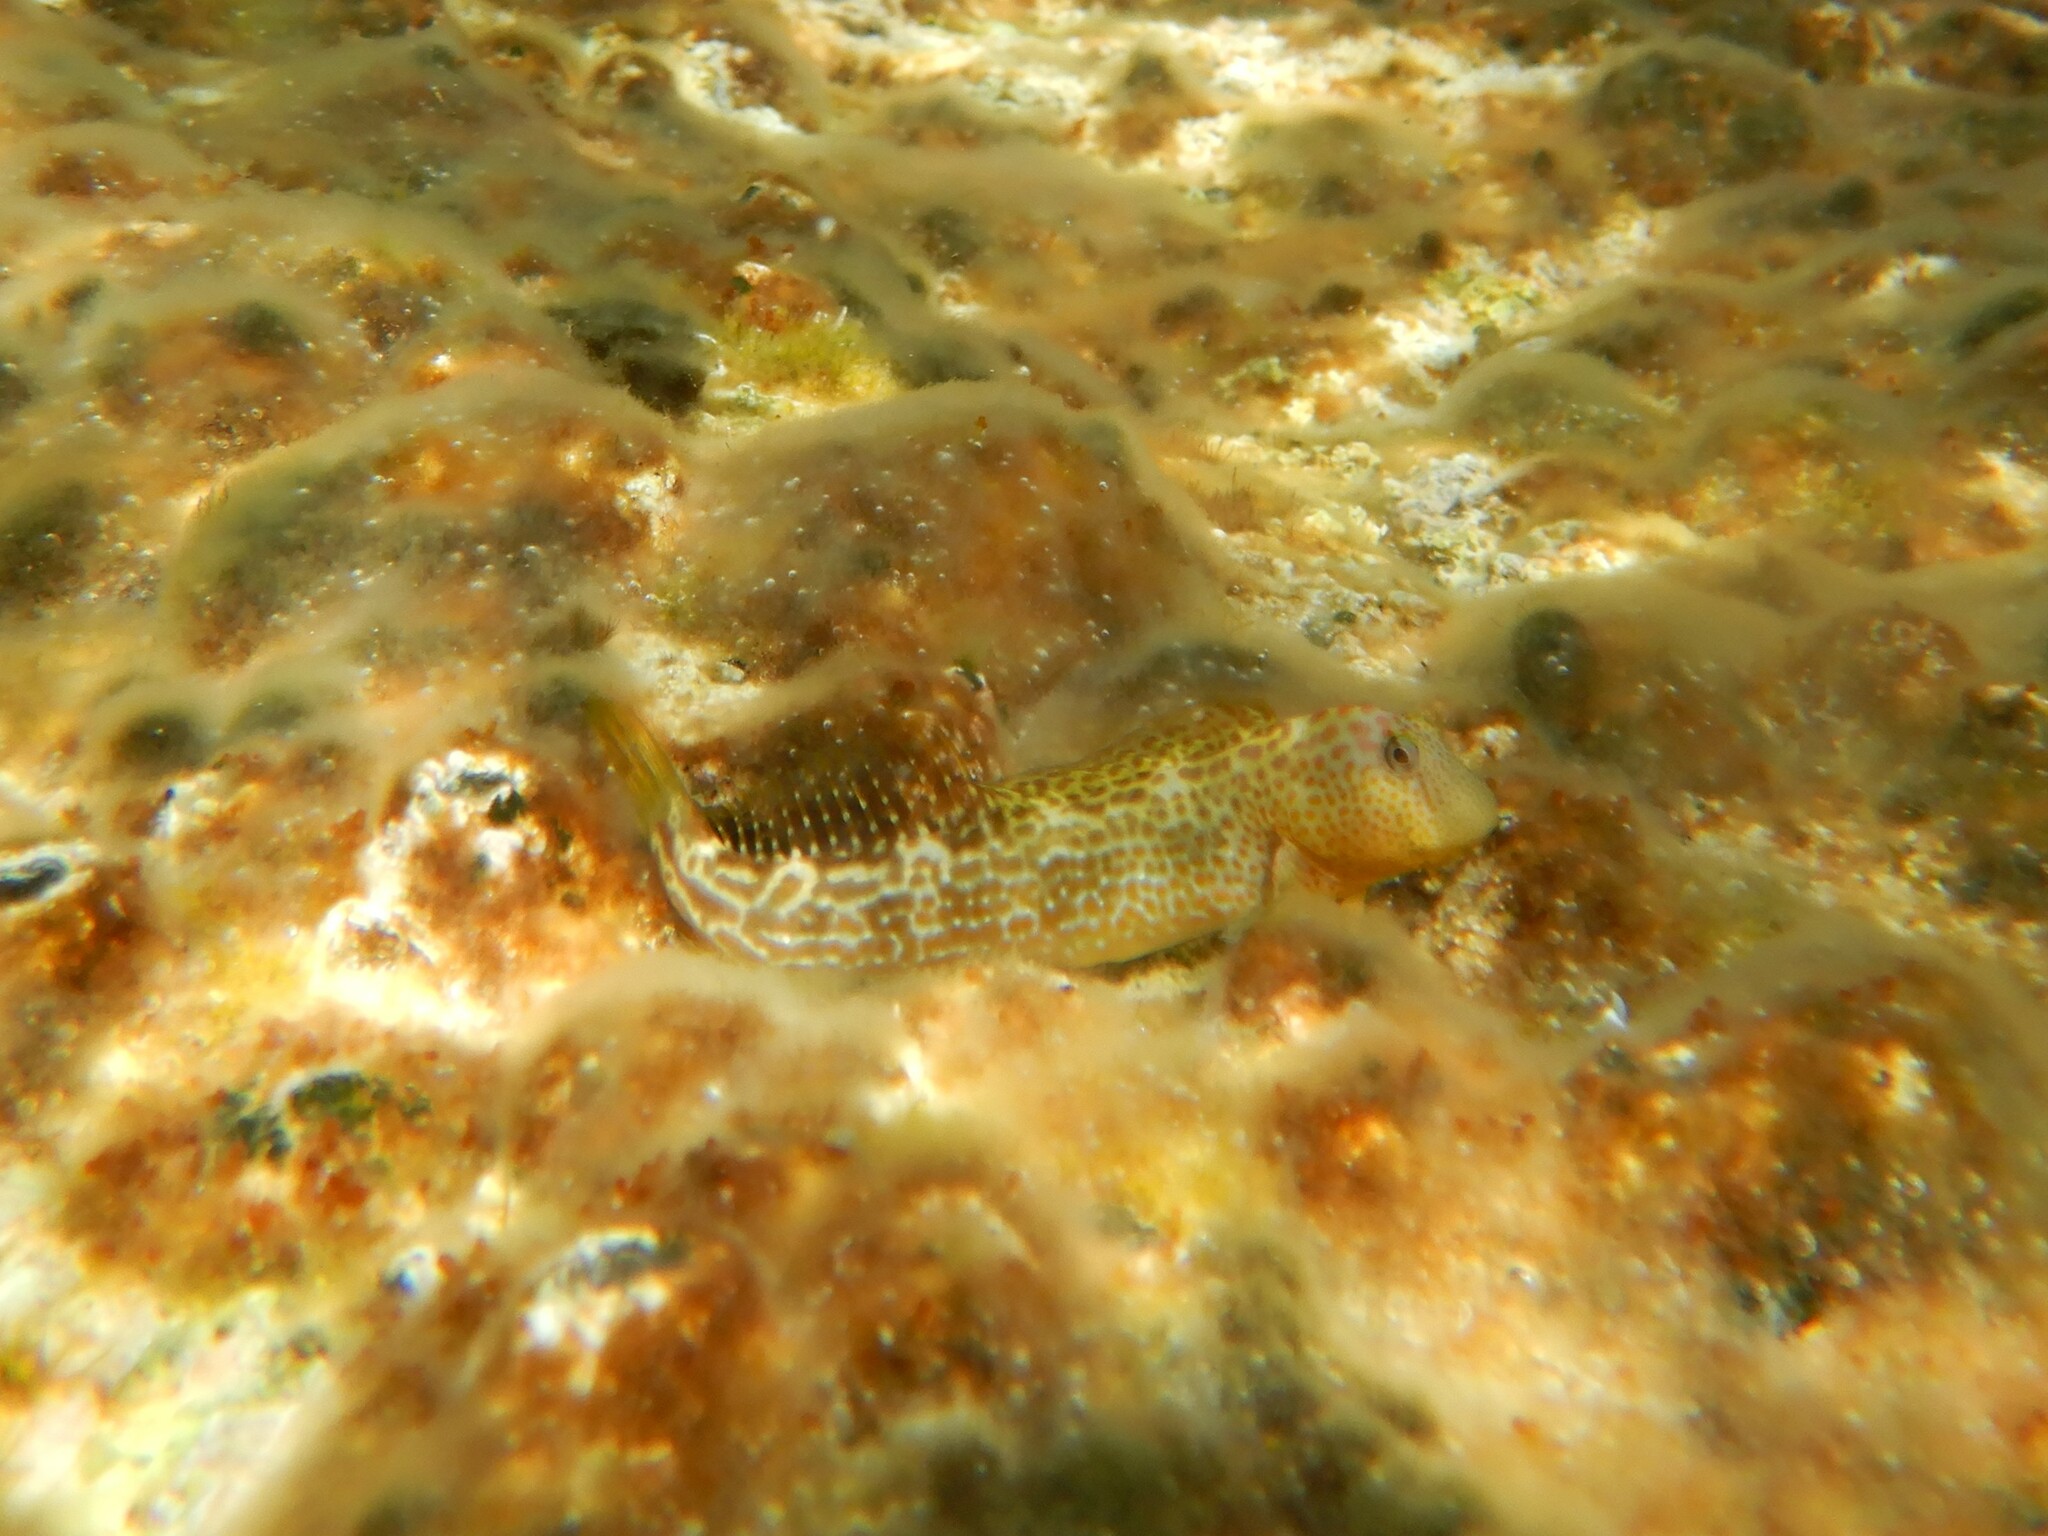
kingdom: Animalia
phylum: Chordata
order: Perciformes
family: Blenniidae
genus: Microlipophrys
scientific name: Microlipophrys canevae
